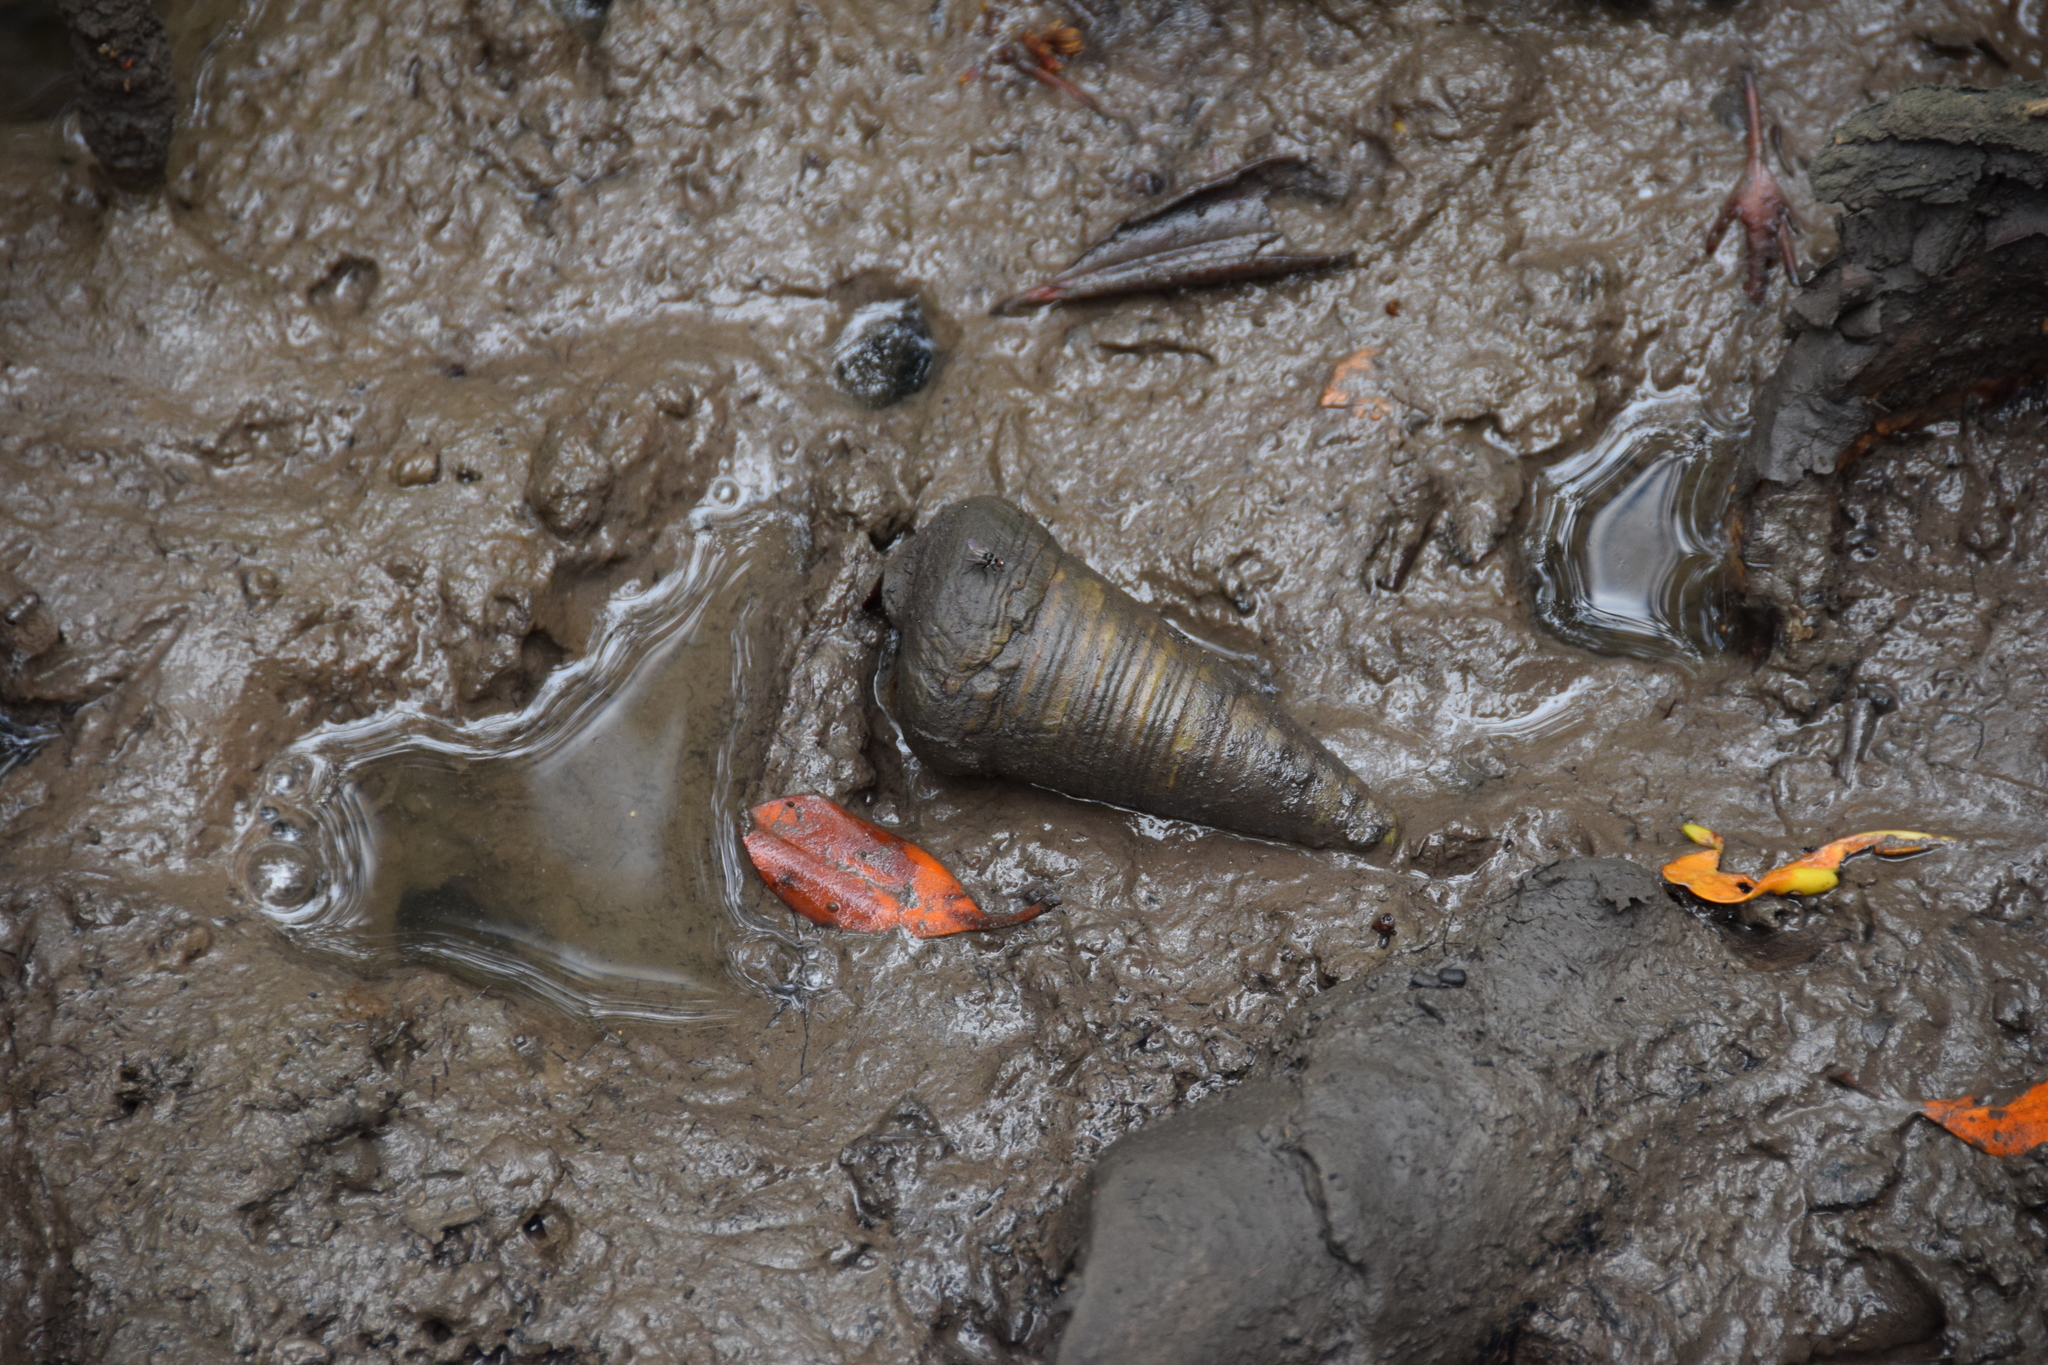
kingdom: Animalia
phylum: Mollusca
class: Gastropoda
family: Potamididae
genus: Telescopium
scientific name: Telescopium telescopium
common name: Telescope creeper
